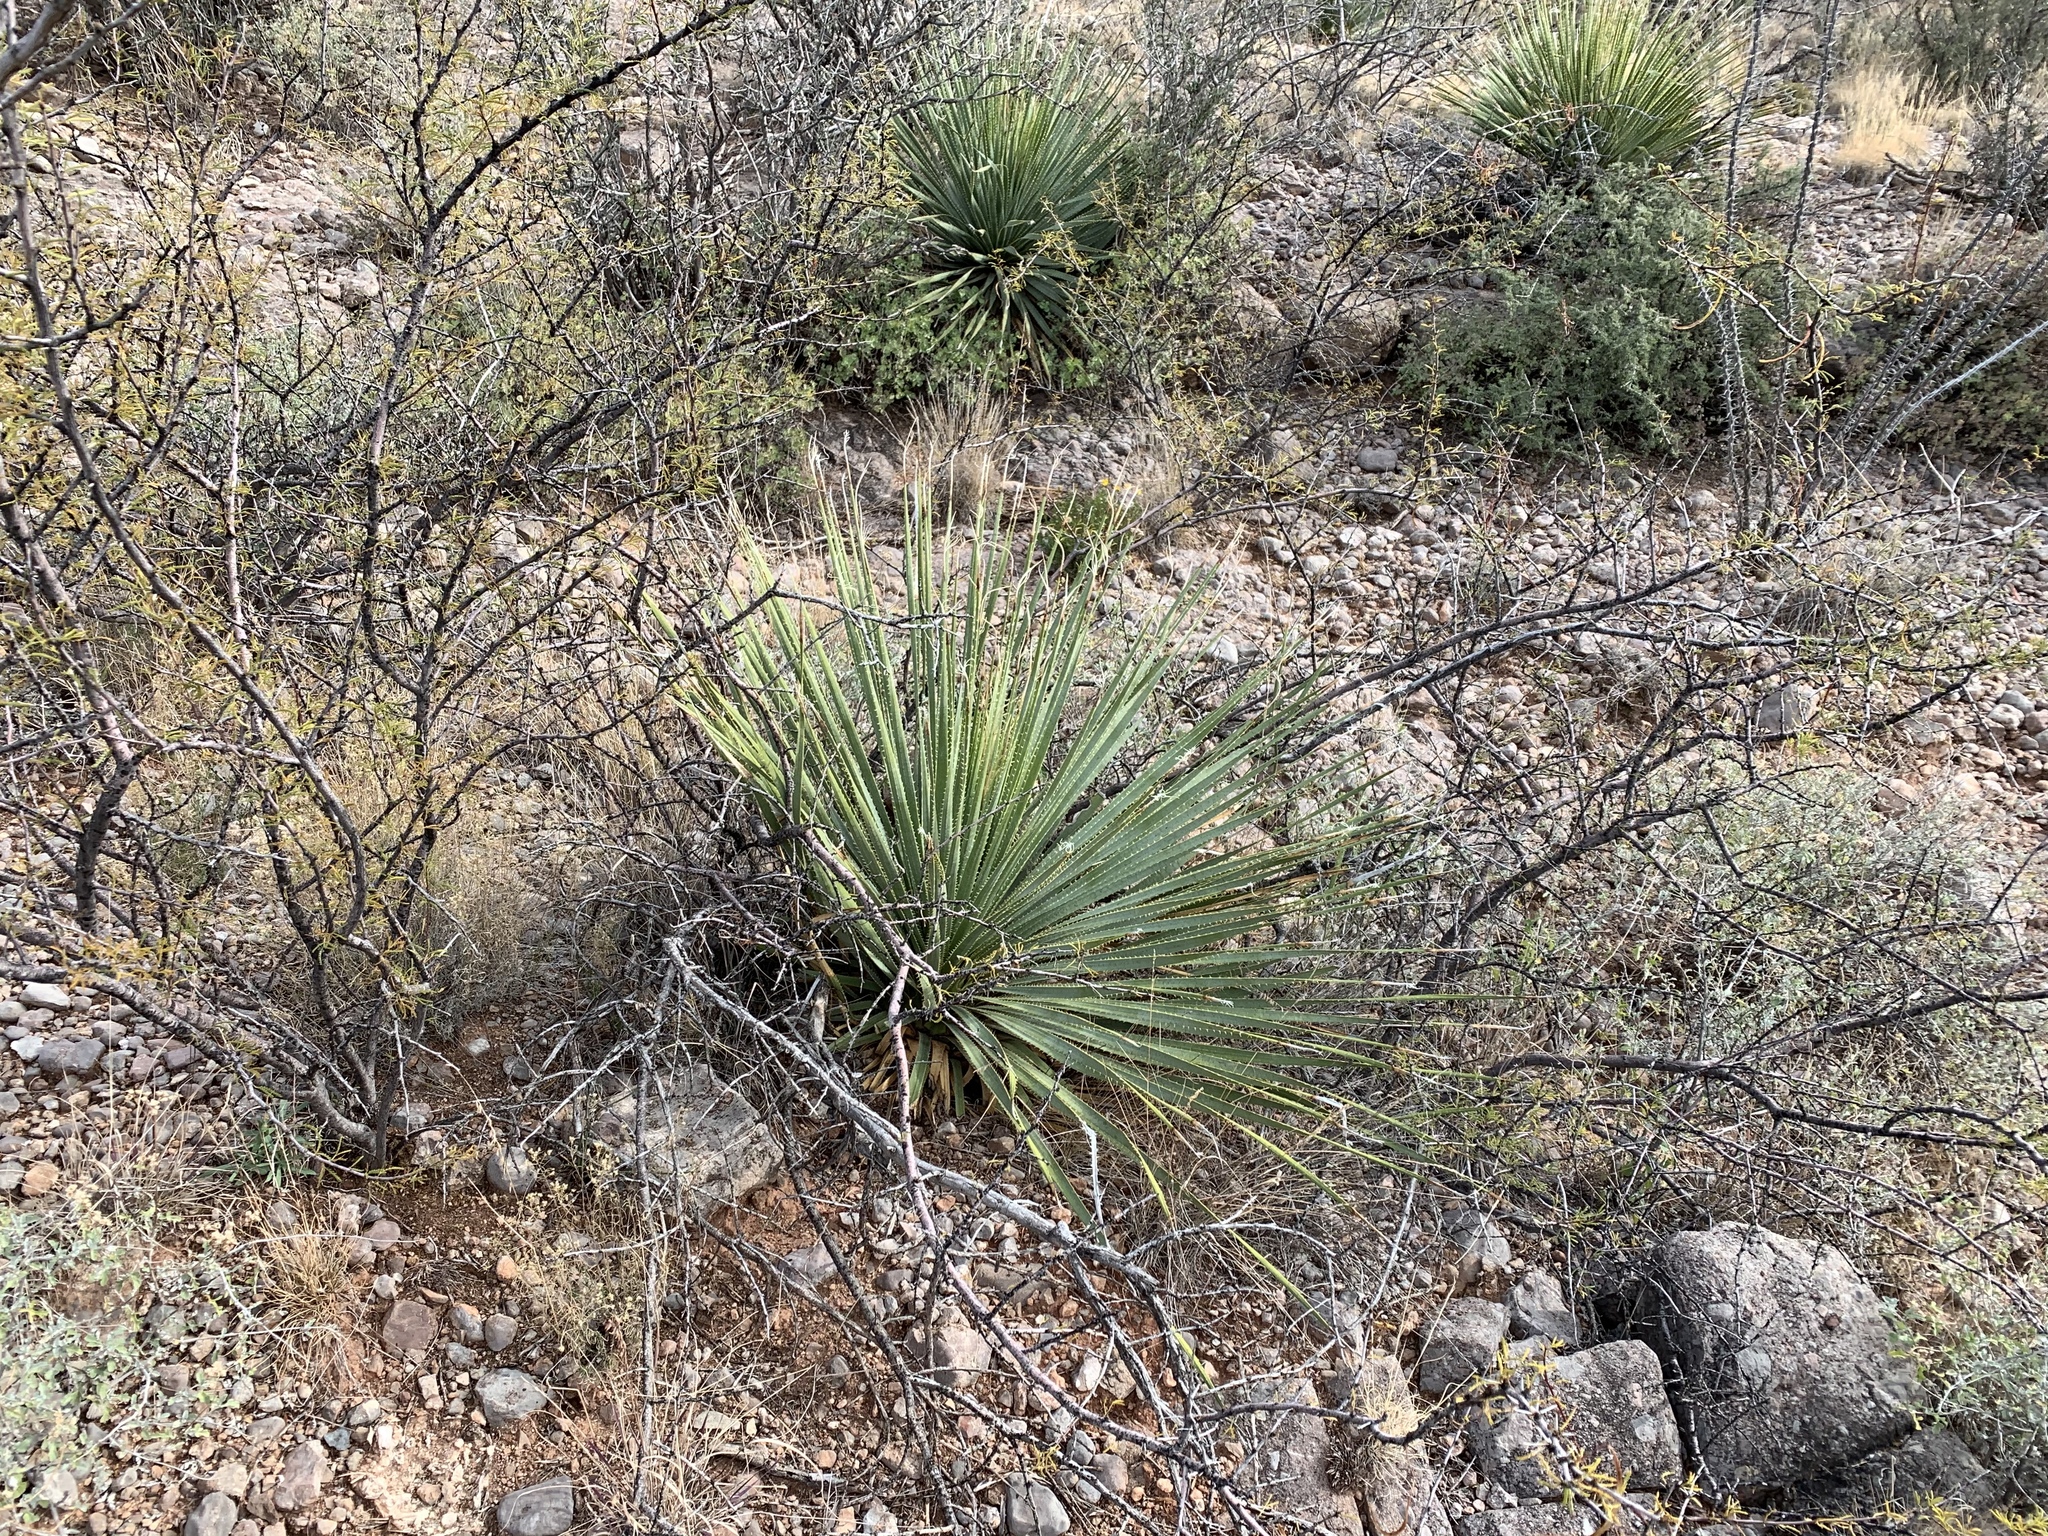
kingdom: Plantae
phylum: Tracheophyta
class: Liliopsida
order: Asparagales
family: Asparagaceae
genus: Dasylirion
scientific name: Dasylirion wheeleri
